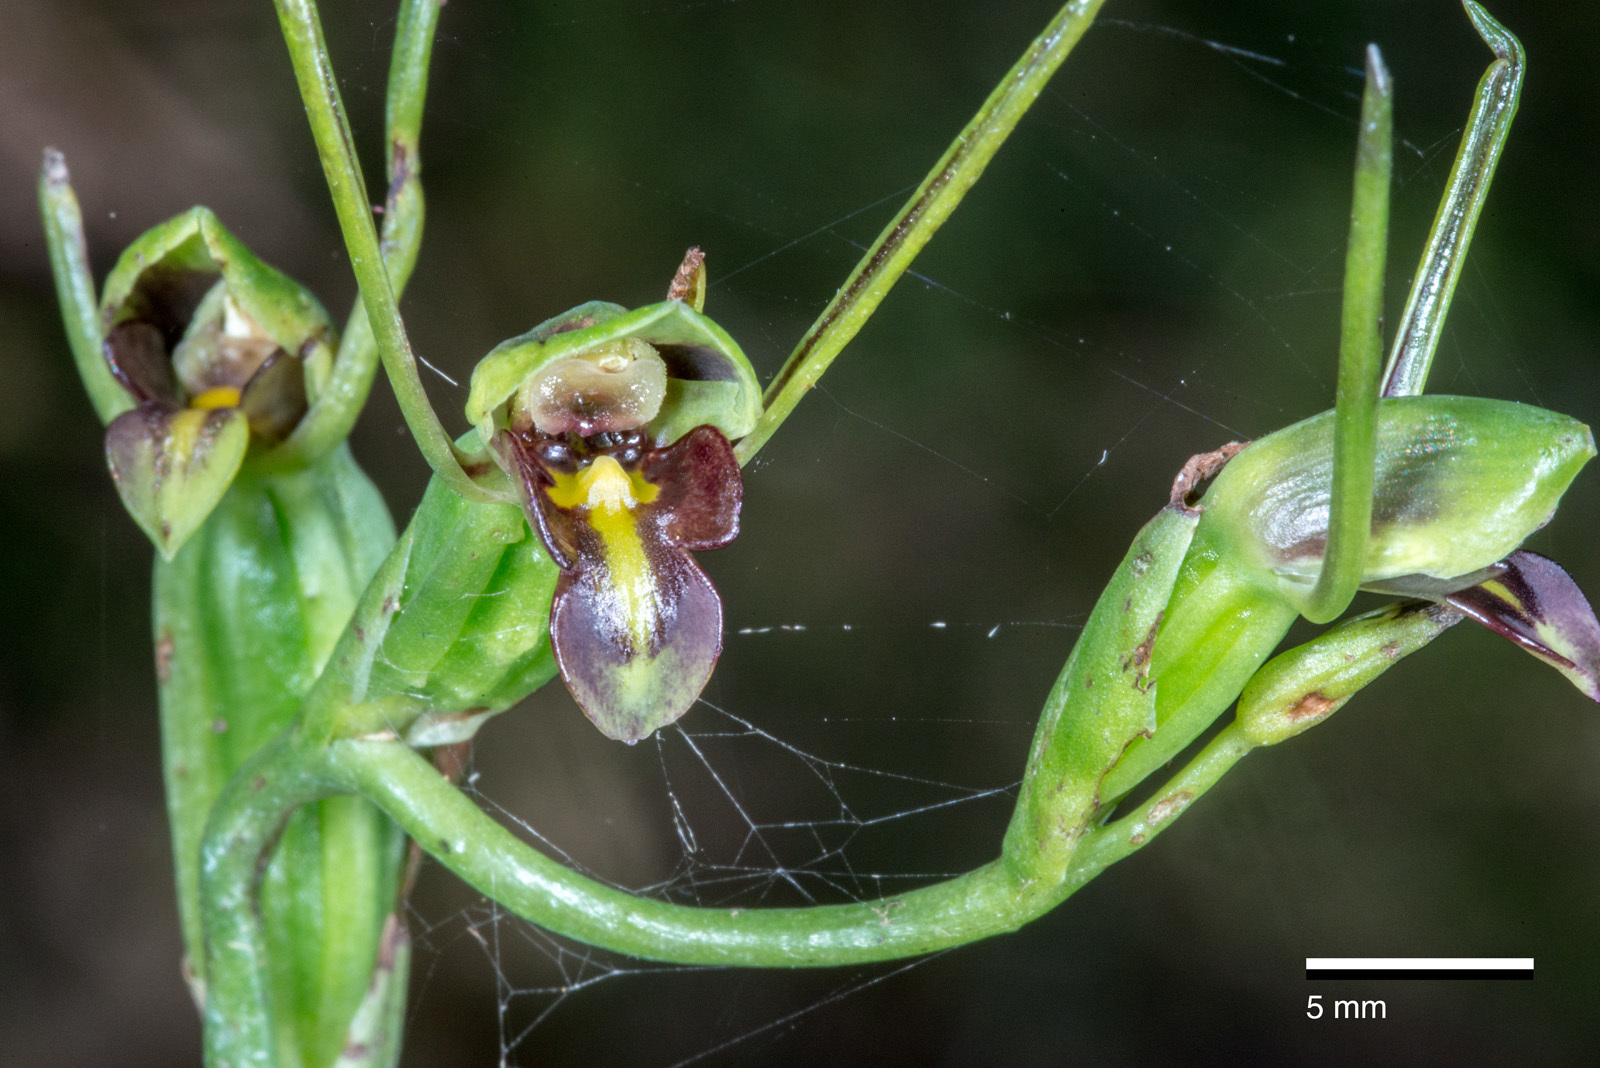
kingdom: Plantae
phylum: Tracheophyta
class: Liliopsida
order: Asparagales
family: Orchidaceae
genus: Orthoceras
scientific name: Orthoceras novae-zeelandiae
